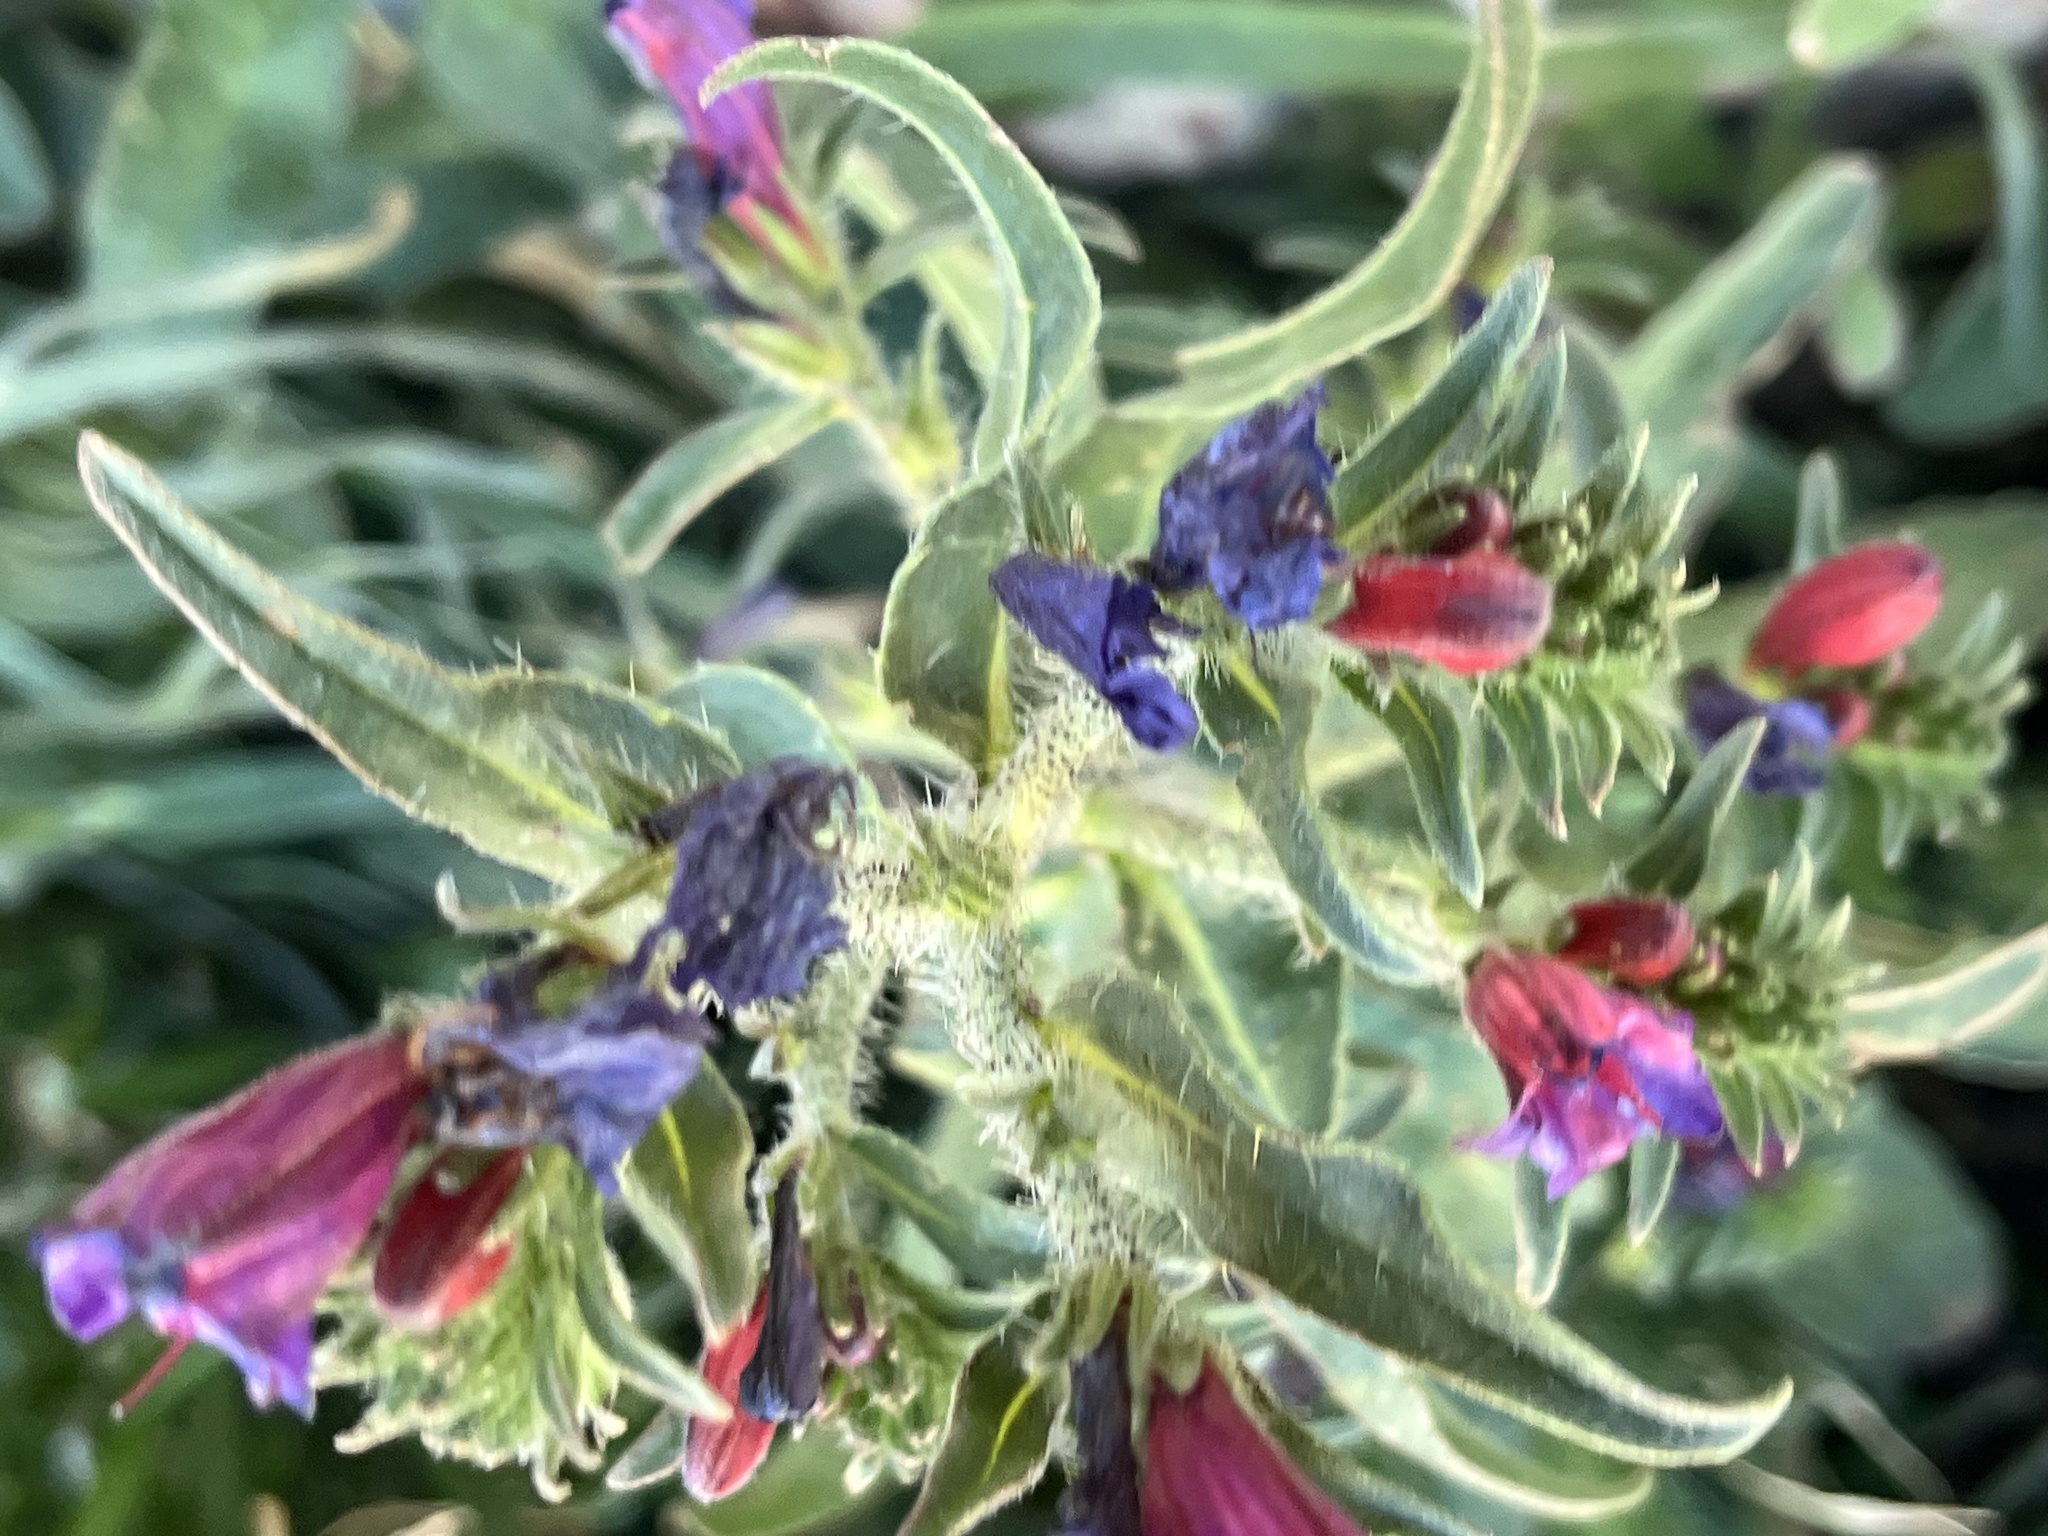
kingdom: Plantae
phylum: Tracheophyta
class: Magnoliopsida
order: Boraginales
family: Boraginaceae
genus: Echium
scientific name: Echium creticum
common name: Cretan viper's bugloss
